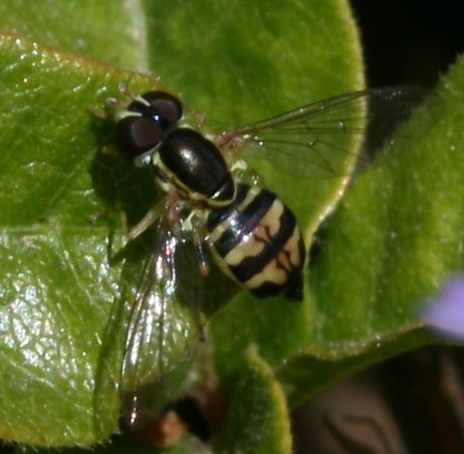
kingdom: Animalia
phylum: Arthropoda
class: Insecta
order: Diptera
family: Syrphidae
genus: Toxomerus
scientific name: Toxomerus occidentalis
